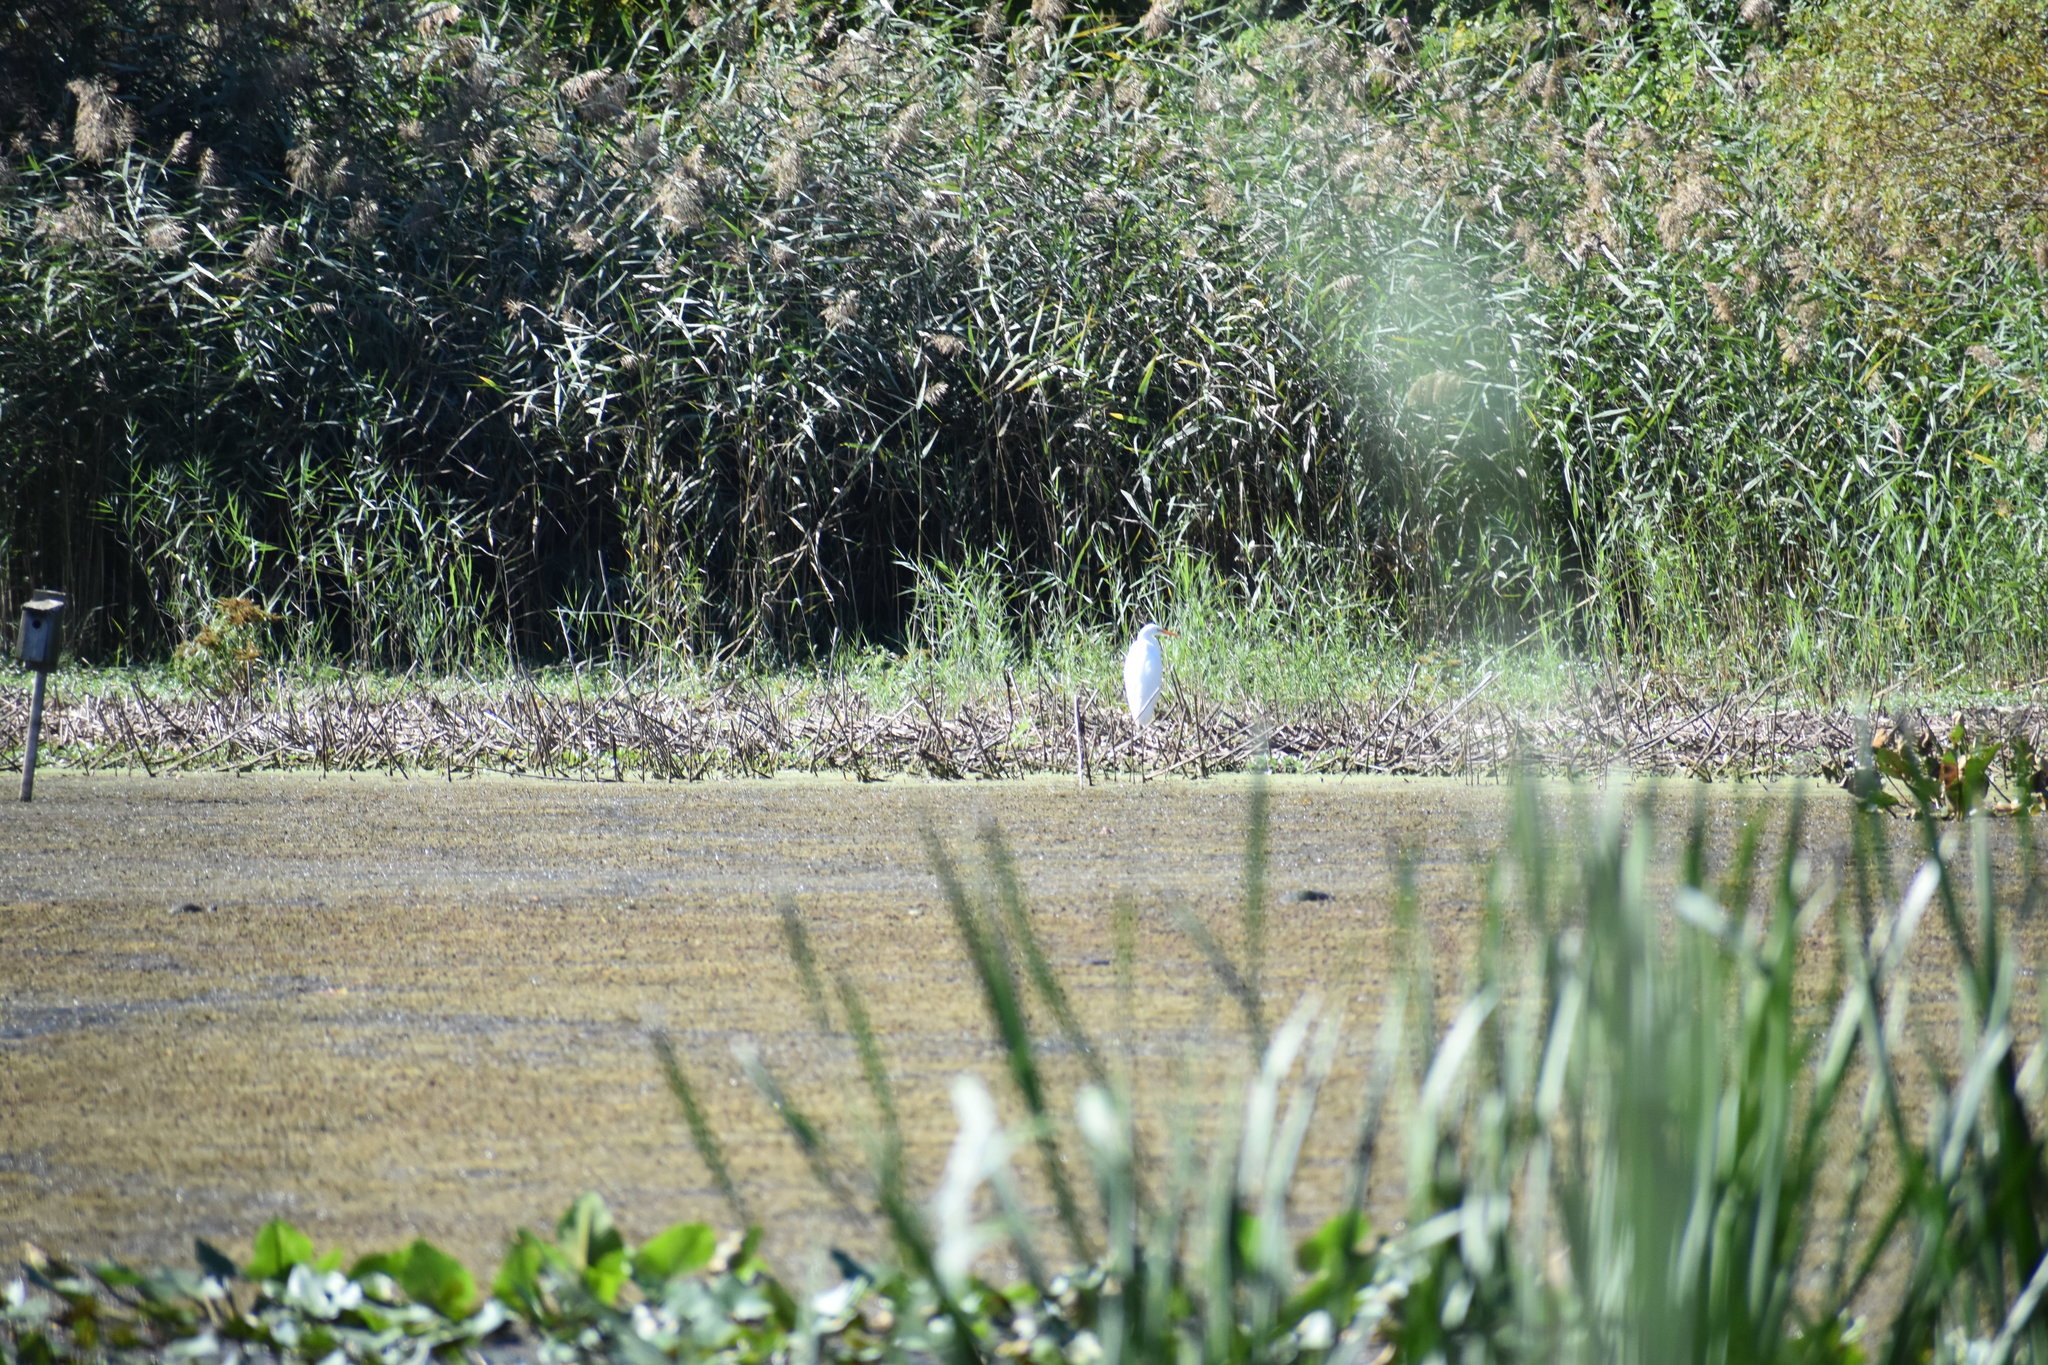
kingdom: Animalia
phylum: Chordata
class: Aves
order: Pelecaniformes
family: Ardeidae
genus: Ardea
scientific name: Ardea alba
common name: Great egret
